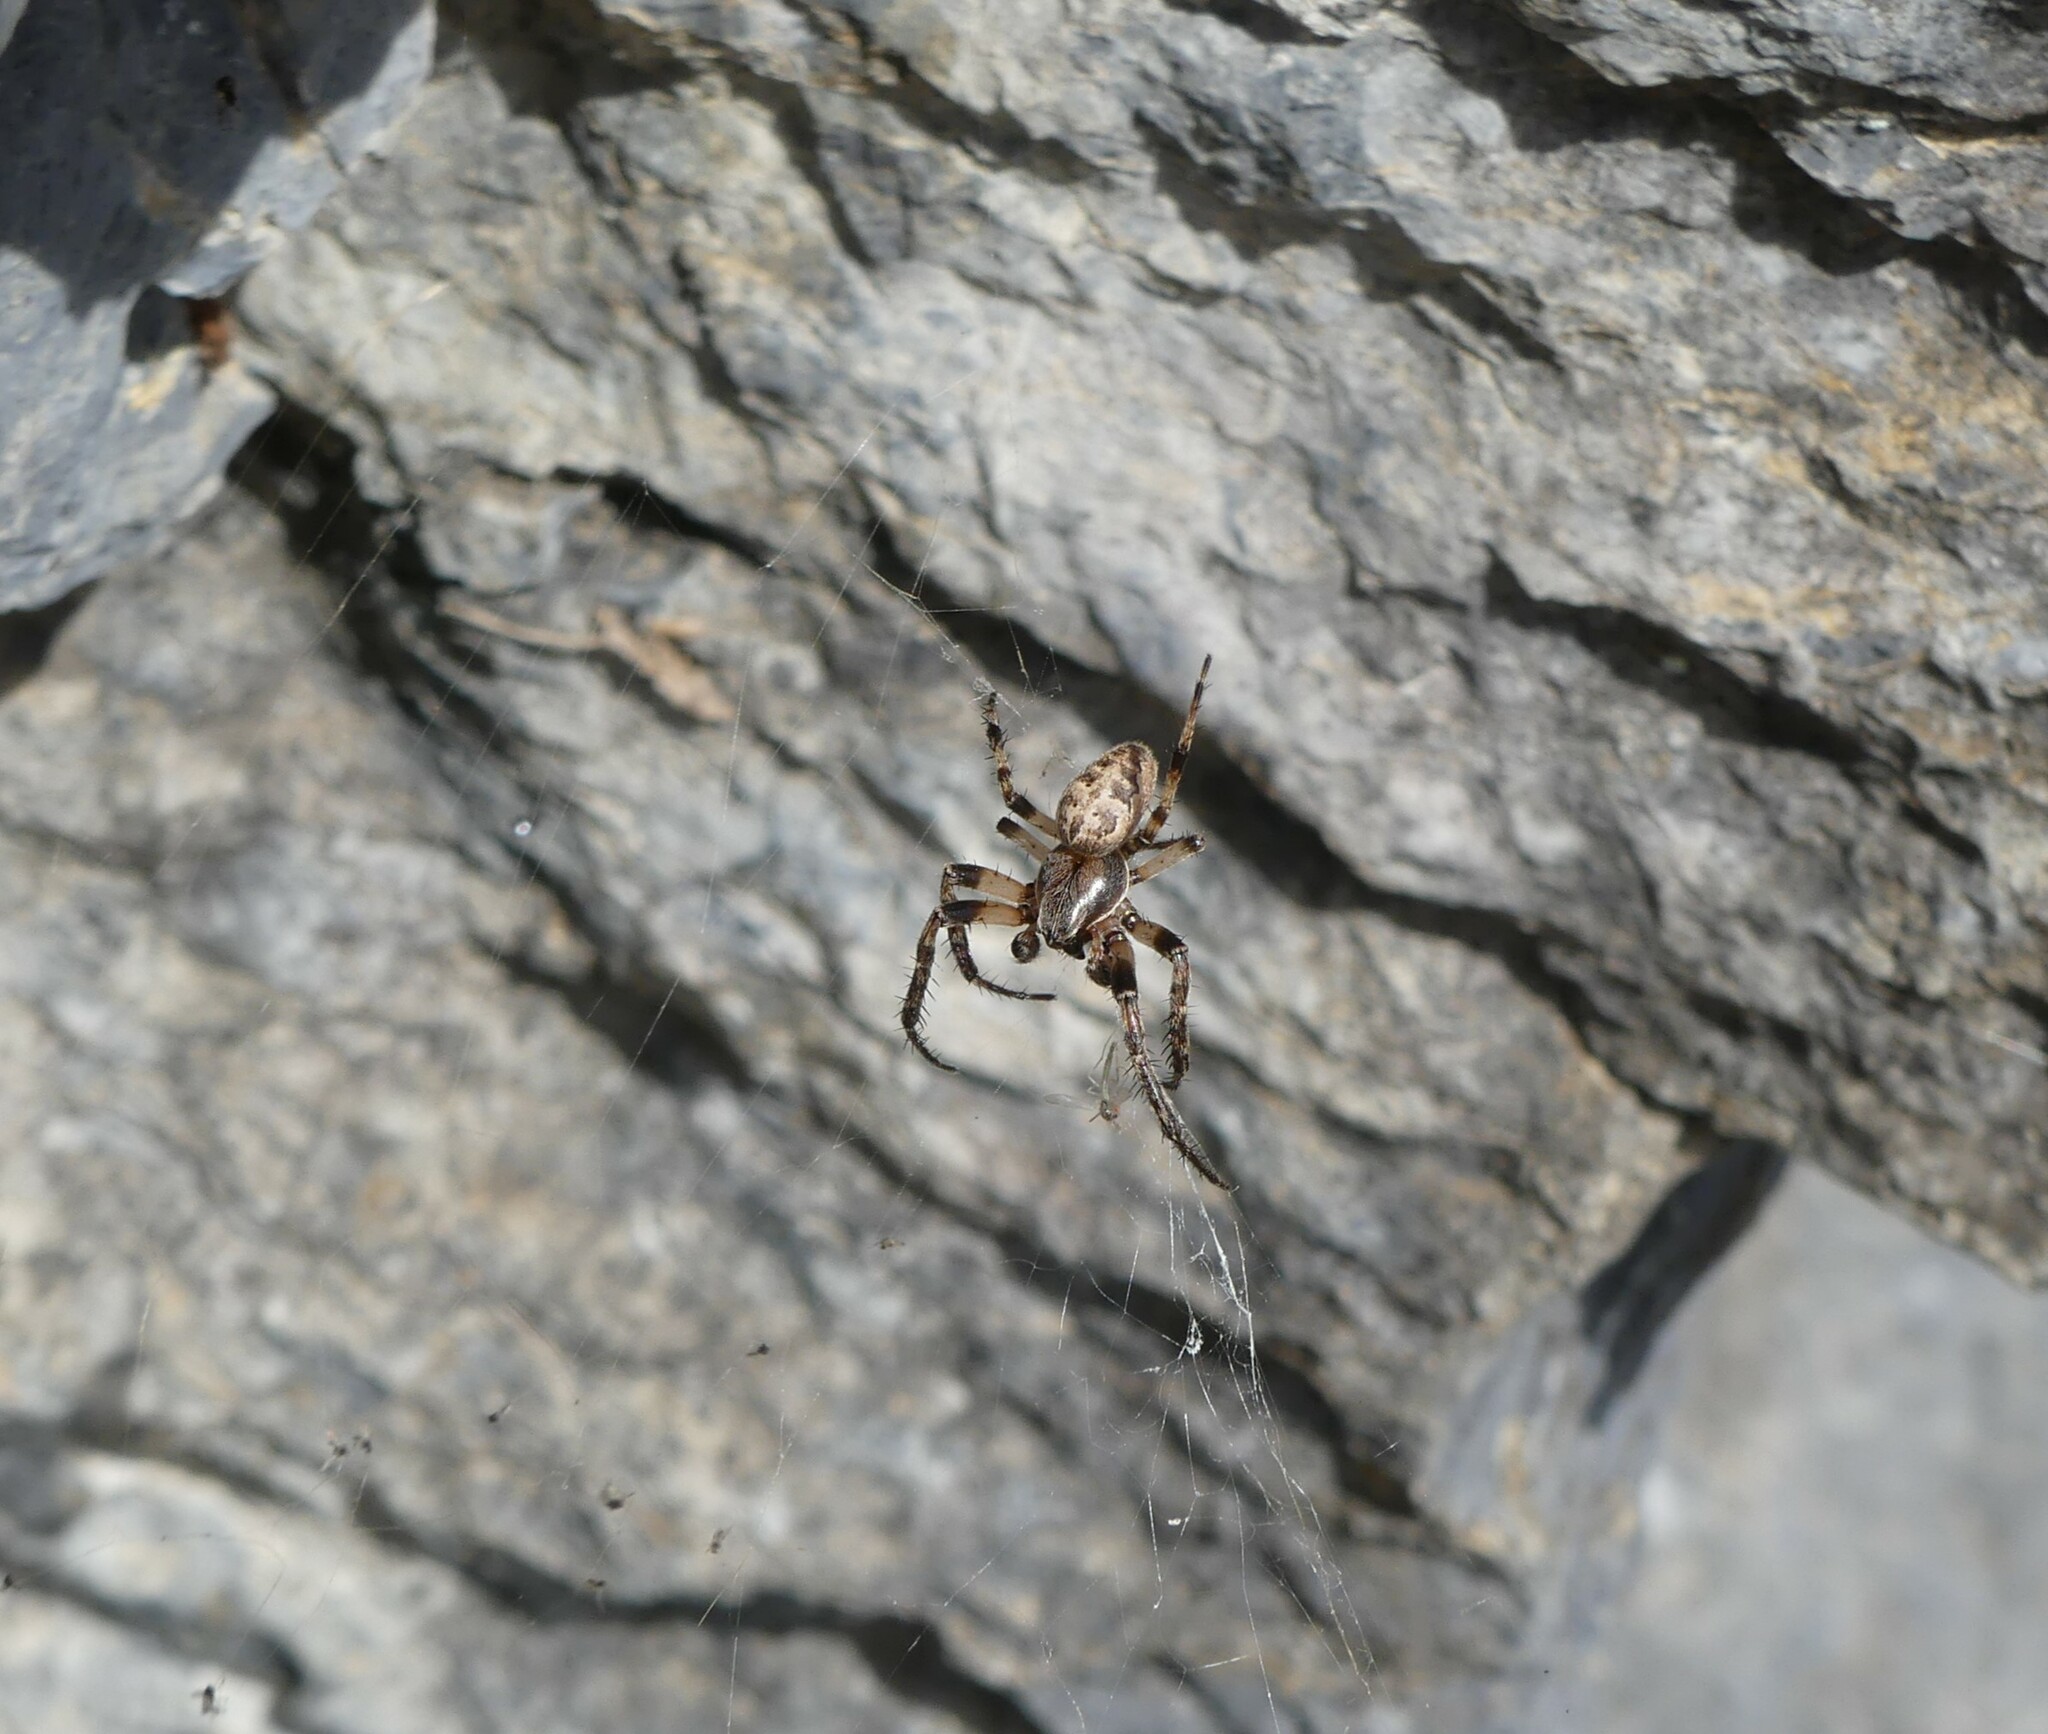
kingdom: Animalia
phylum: Arthropoda
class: Arachnida
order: Araneae
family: Araneidae
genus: Larinioides
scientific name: Larinioides cornutus
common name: Furrow orbweaver
